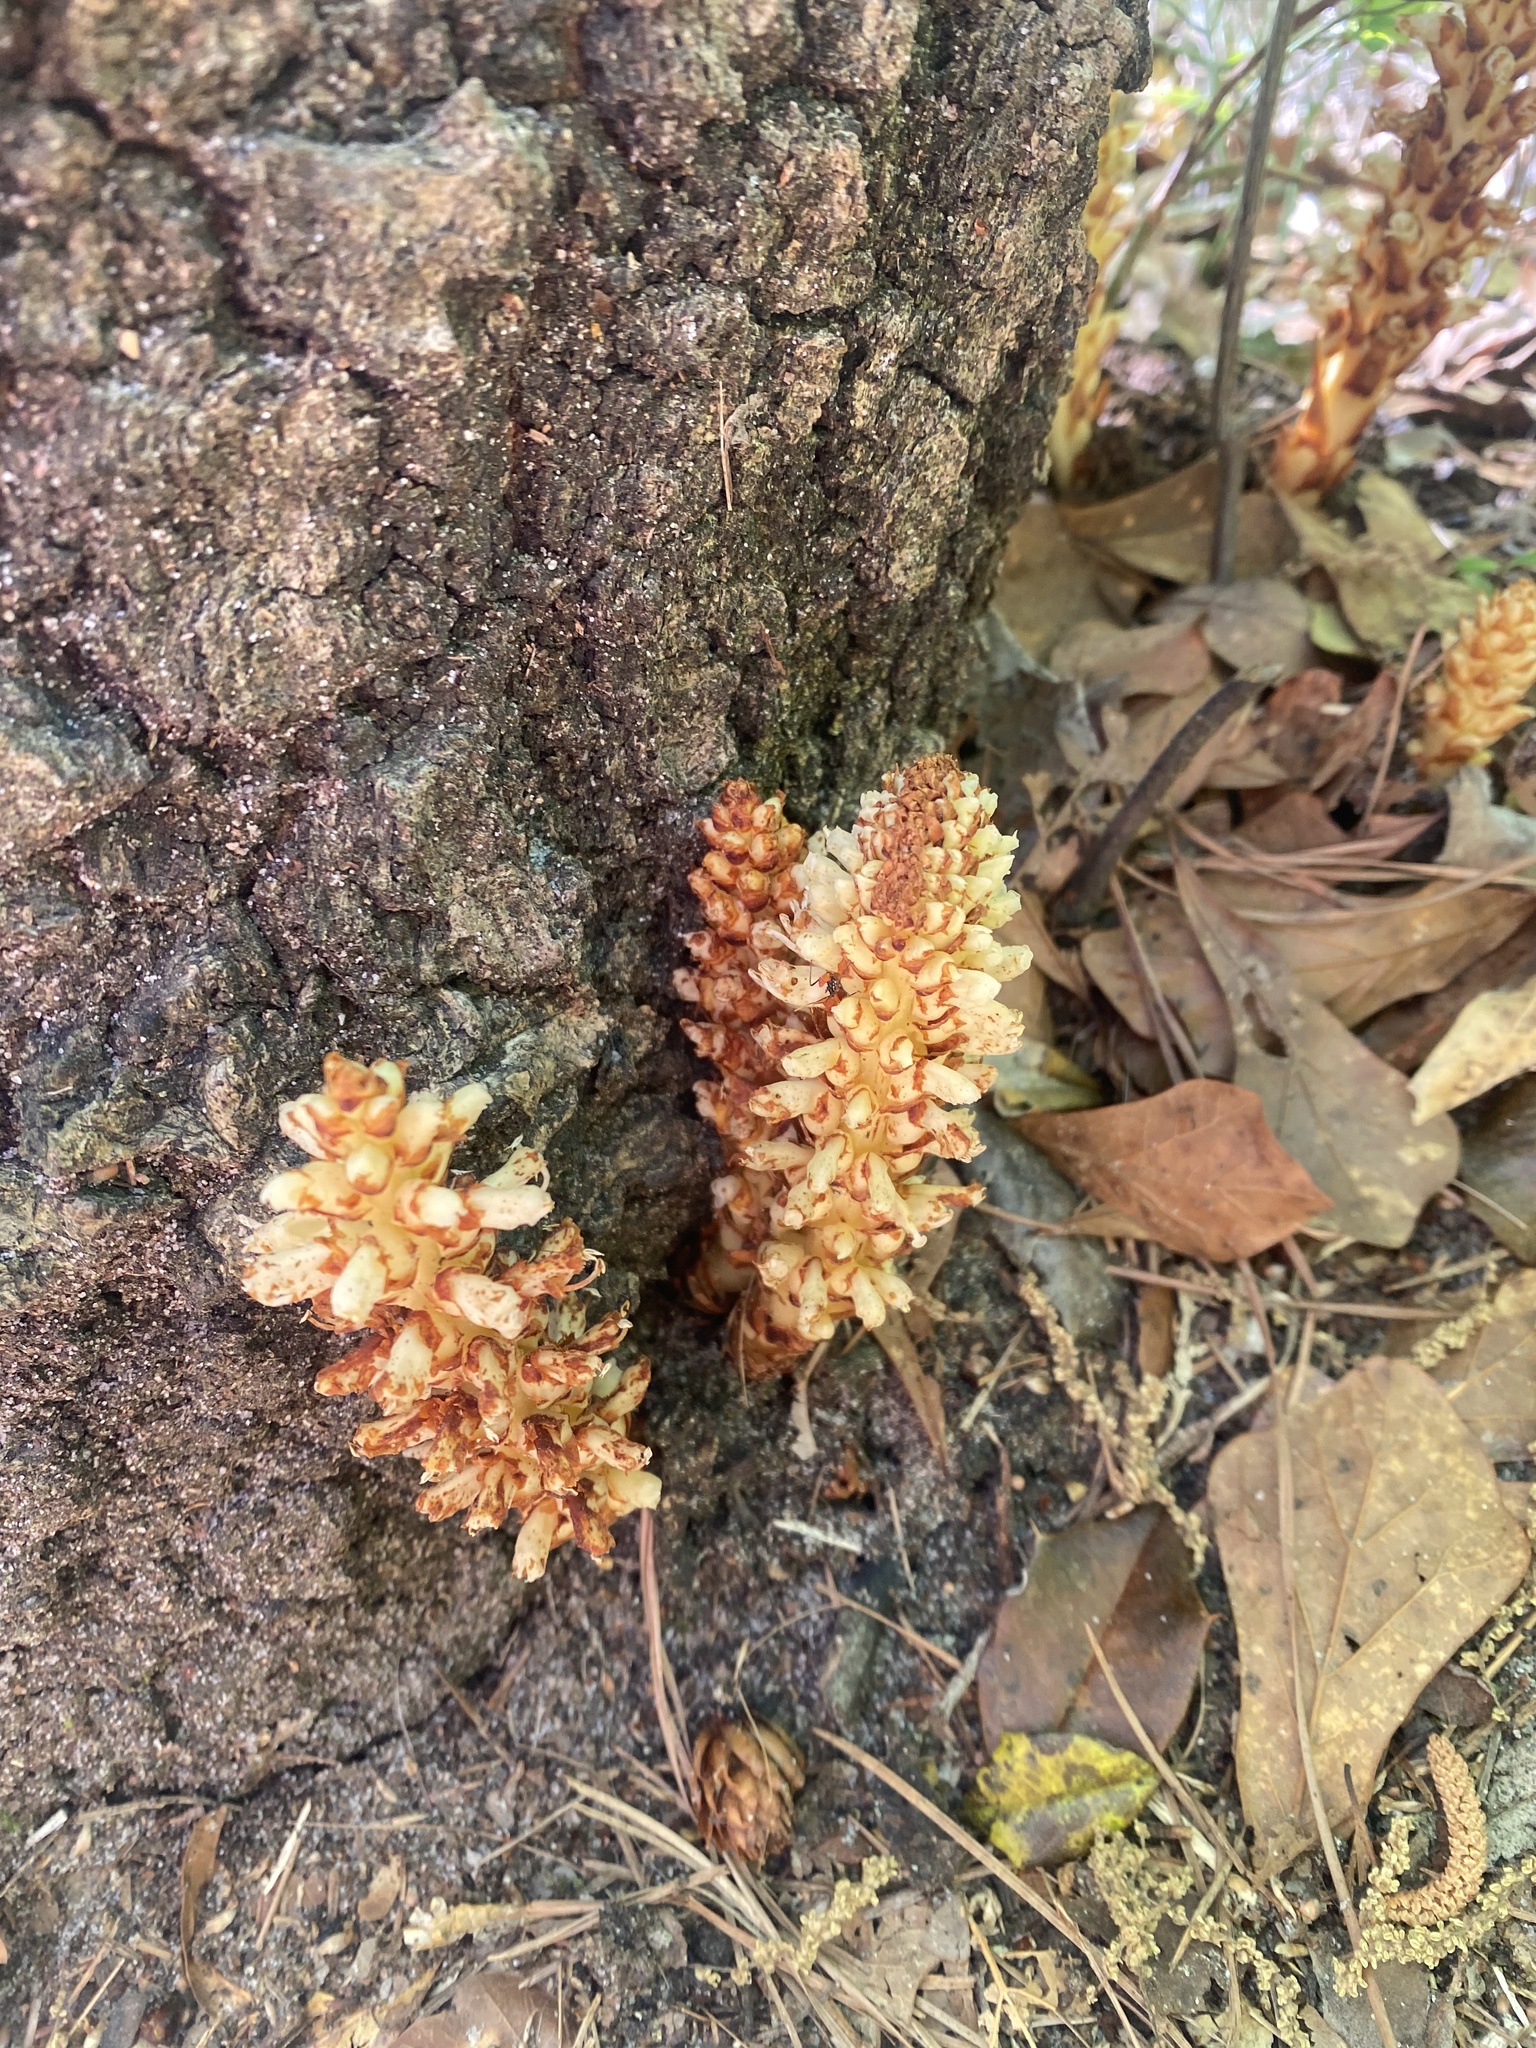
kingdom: Plantae
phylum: Tracheophyta
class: Magnoliopsida
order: Lamiales
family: Orobanchaceae
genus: Conopholis
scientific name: Conopholis americana
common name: American cancer-root
